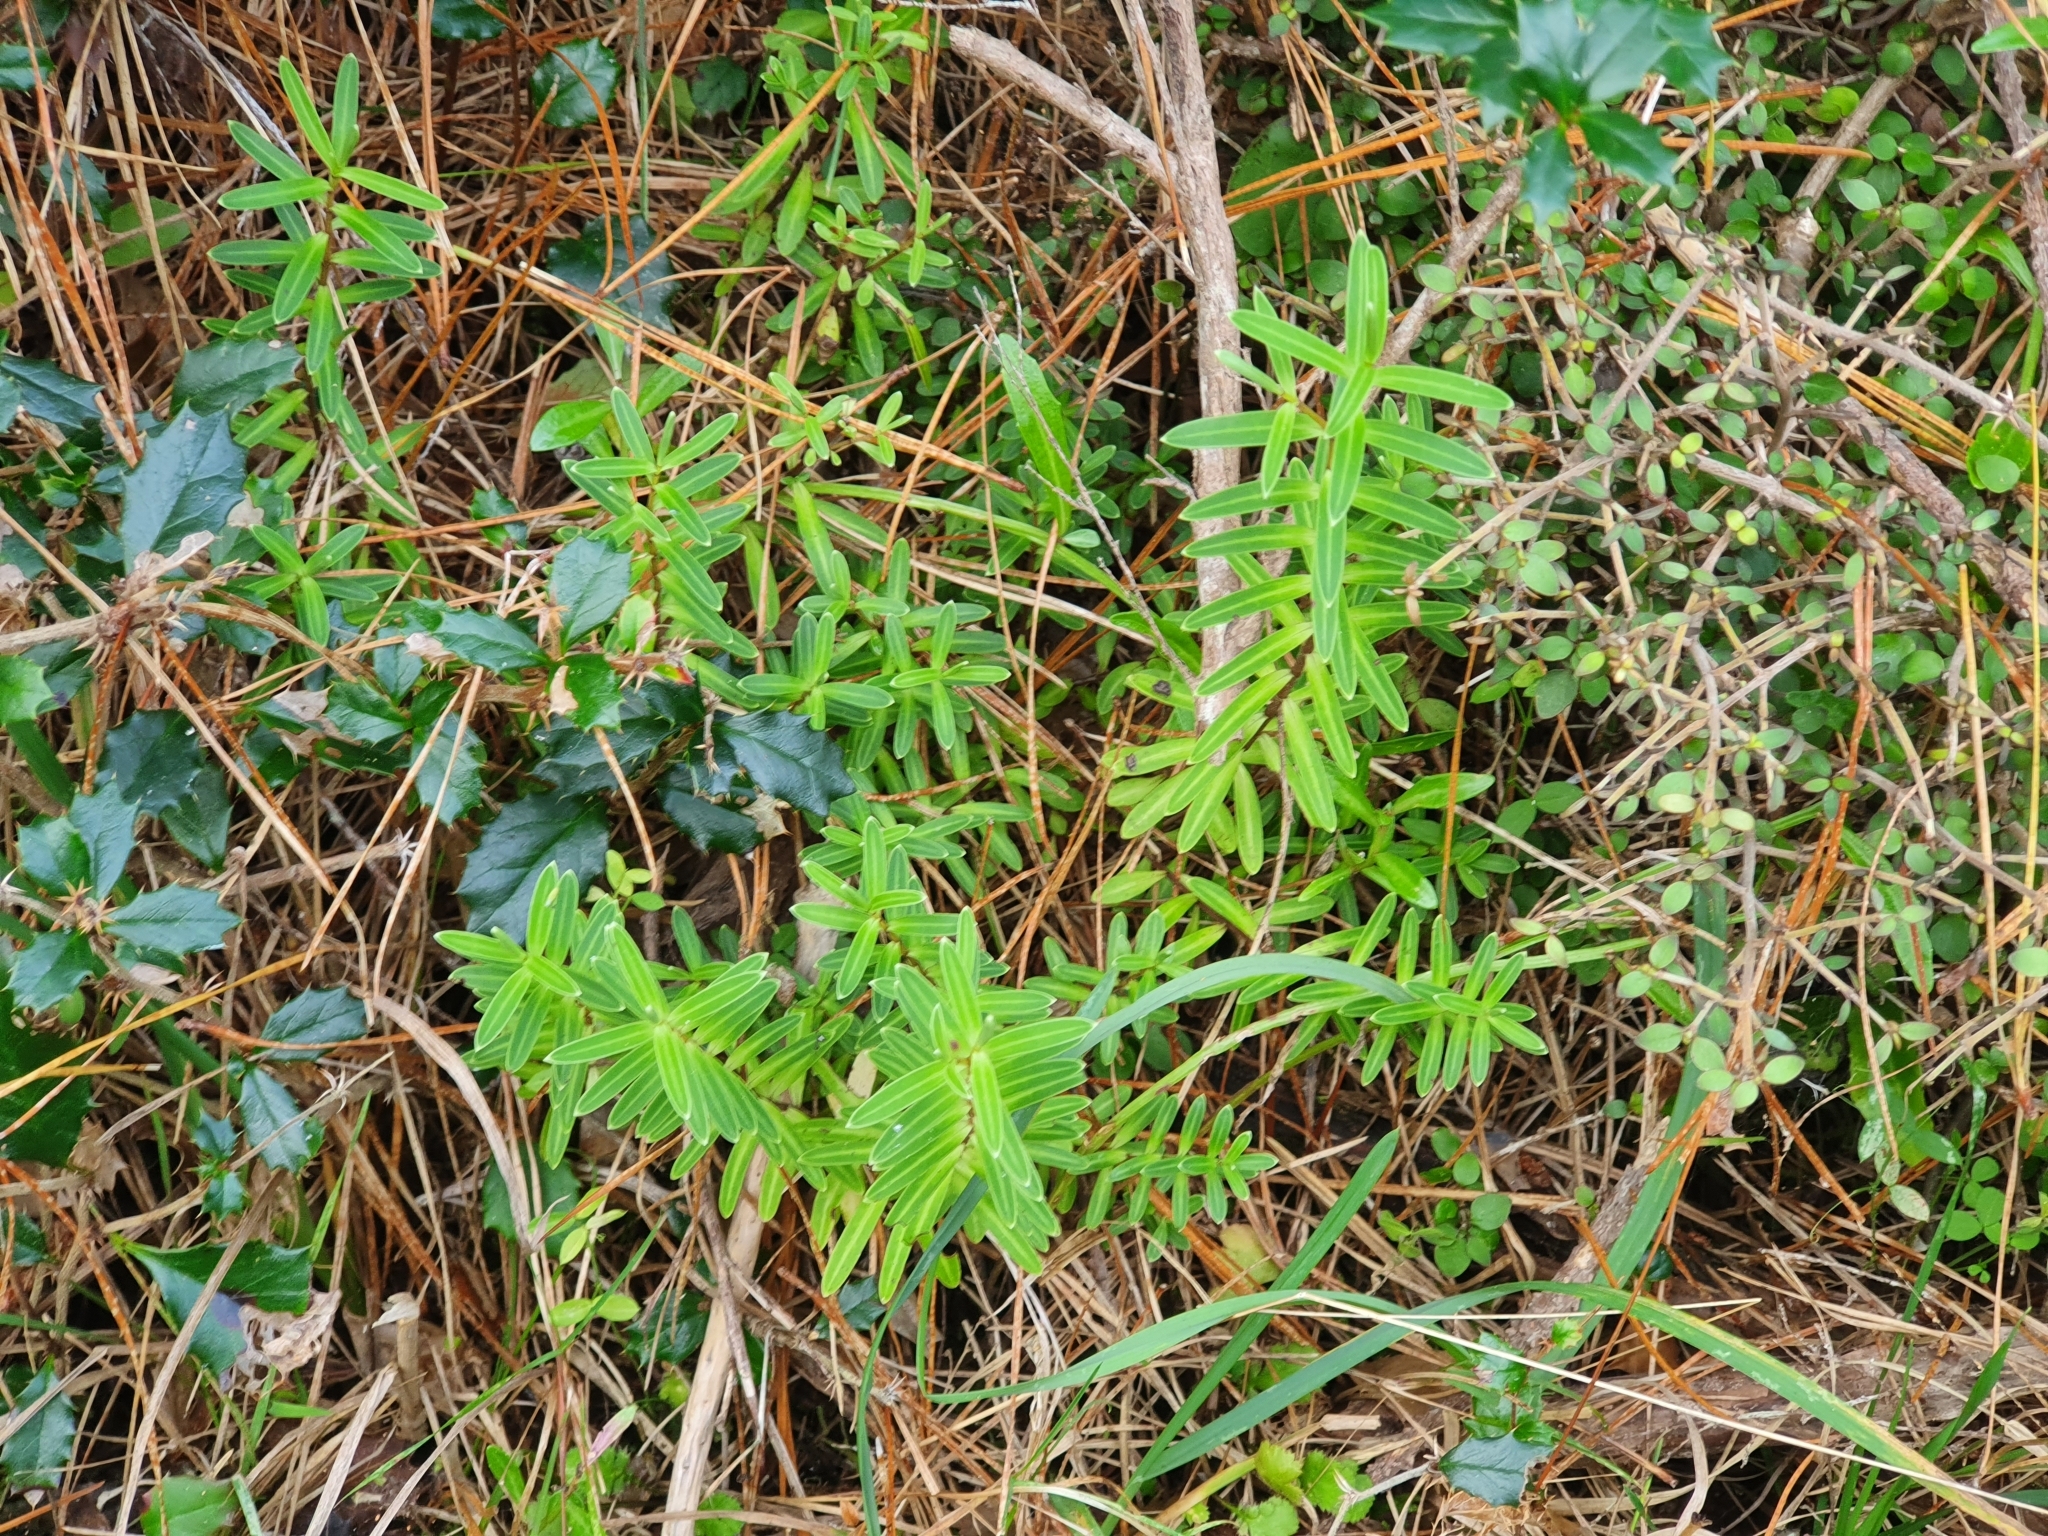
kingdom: Plantae
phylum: Tracheophyta
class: Magnoliopsida
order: Lamiales
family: Plantaginaceae
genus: Veronica
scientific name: Veronica parviflora
